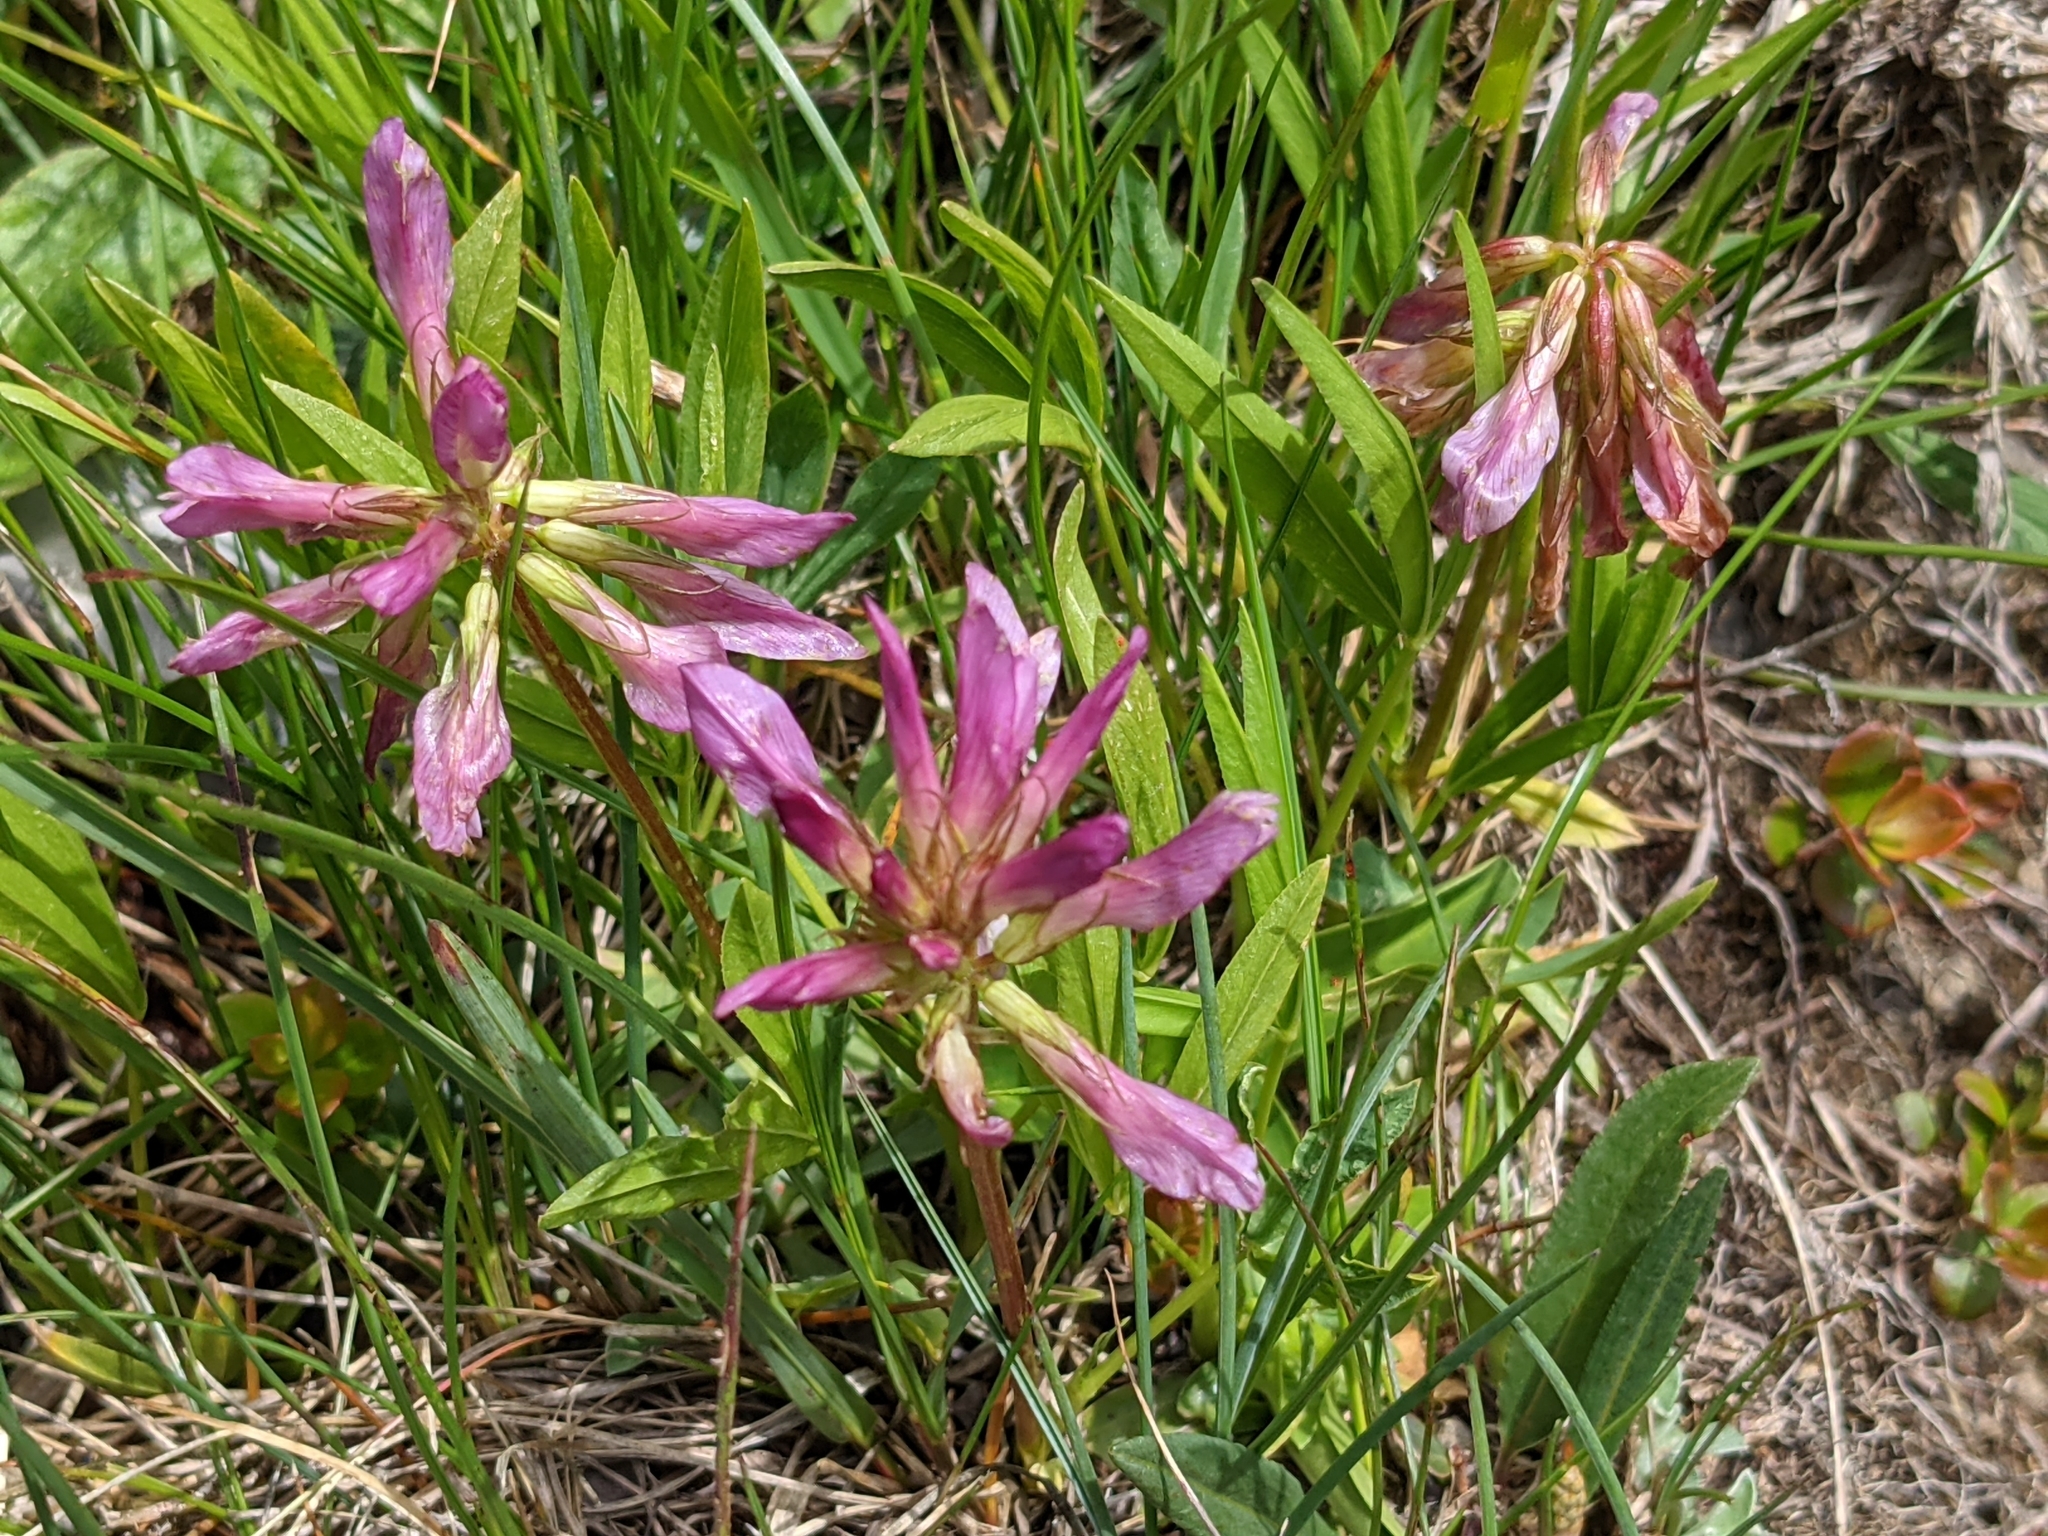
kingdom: Plantae
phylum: Tracheophyta
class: Magnoliopsida
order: Fabales
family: Fabaceae
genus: Trifolium
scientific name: Trifolium alpinum
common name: Alpine clover
